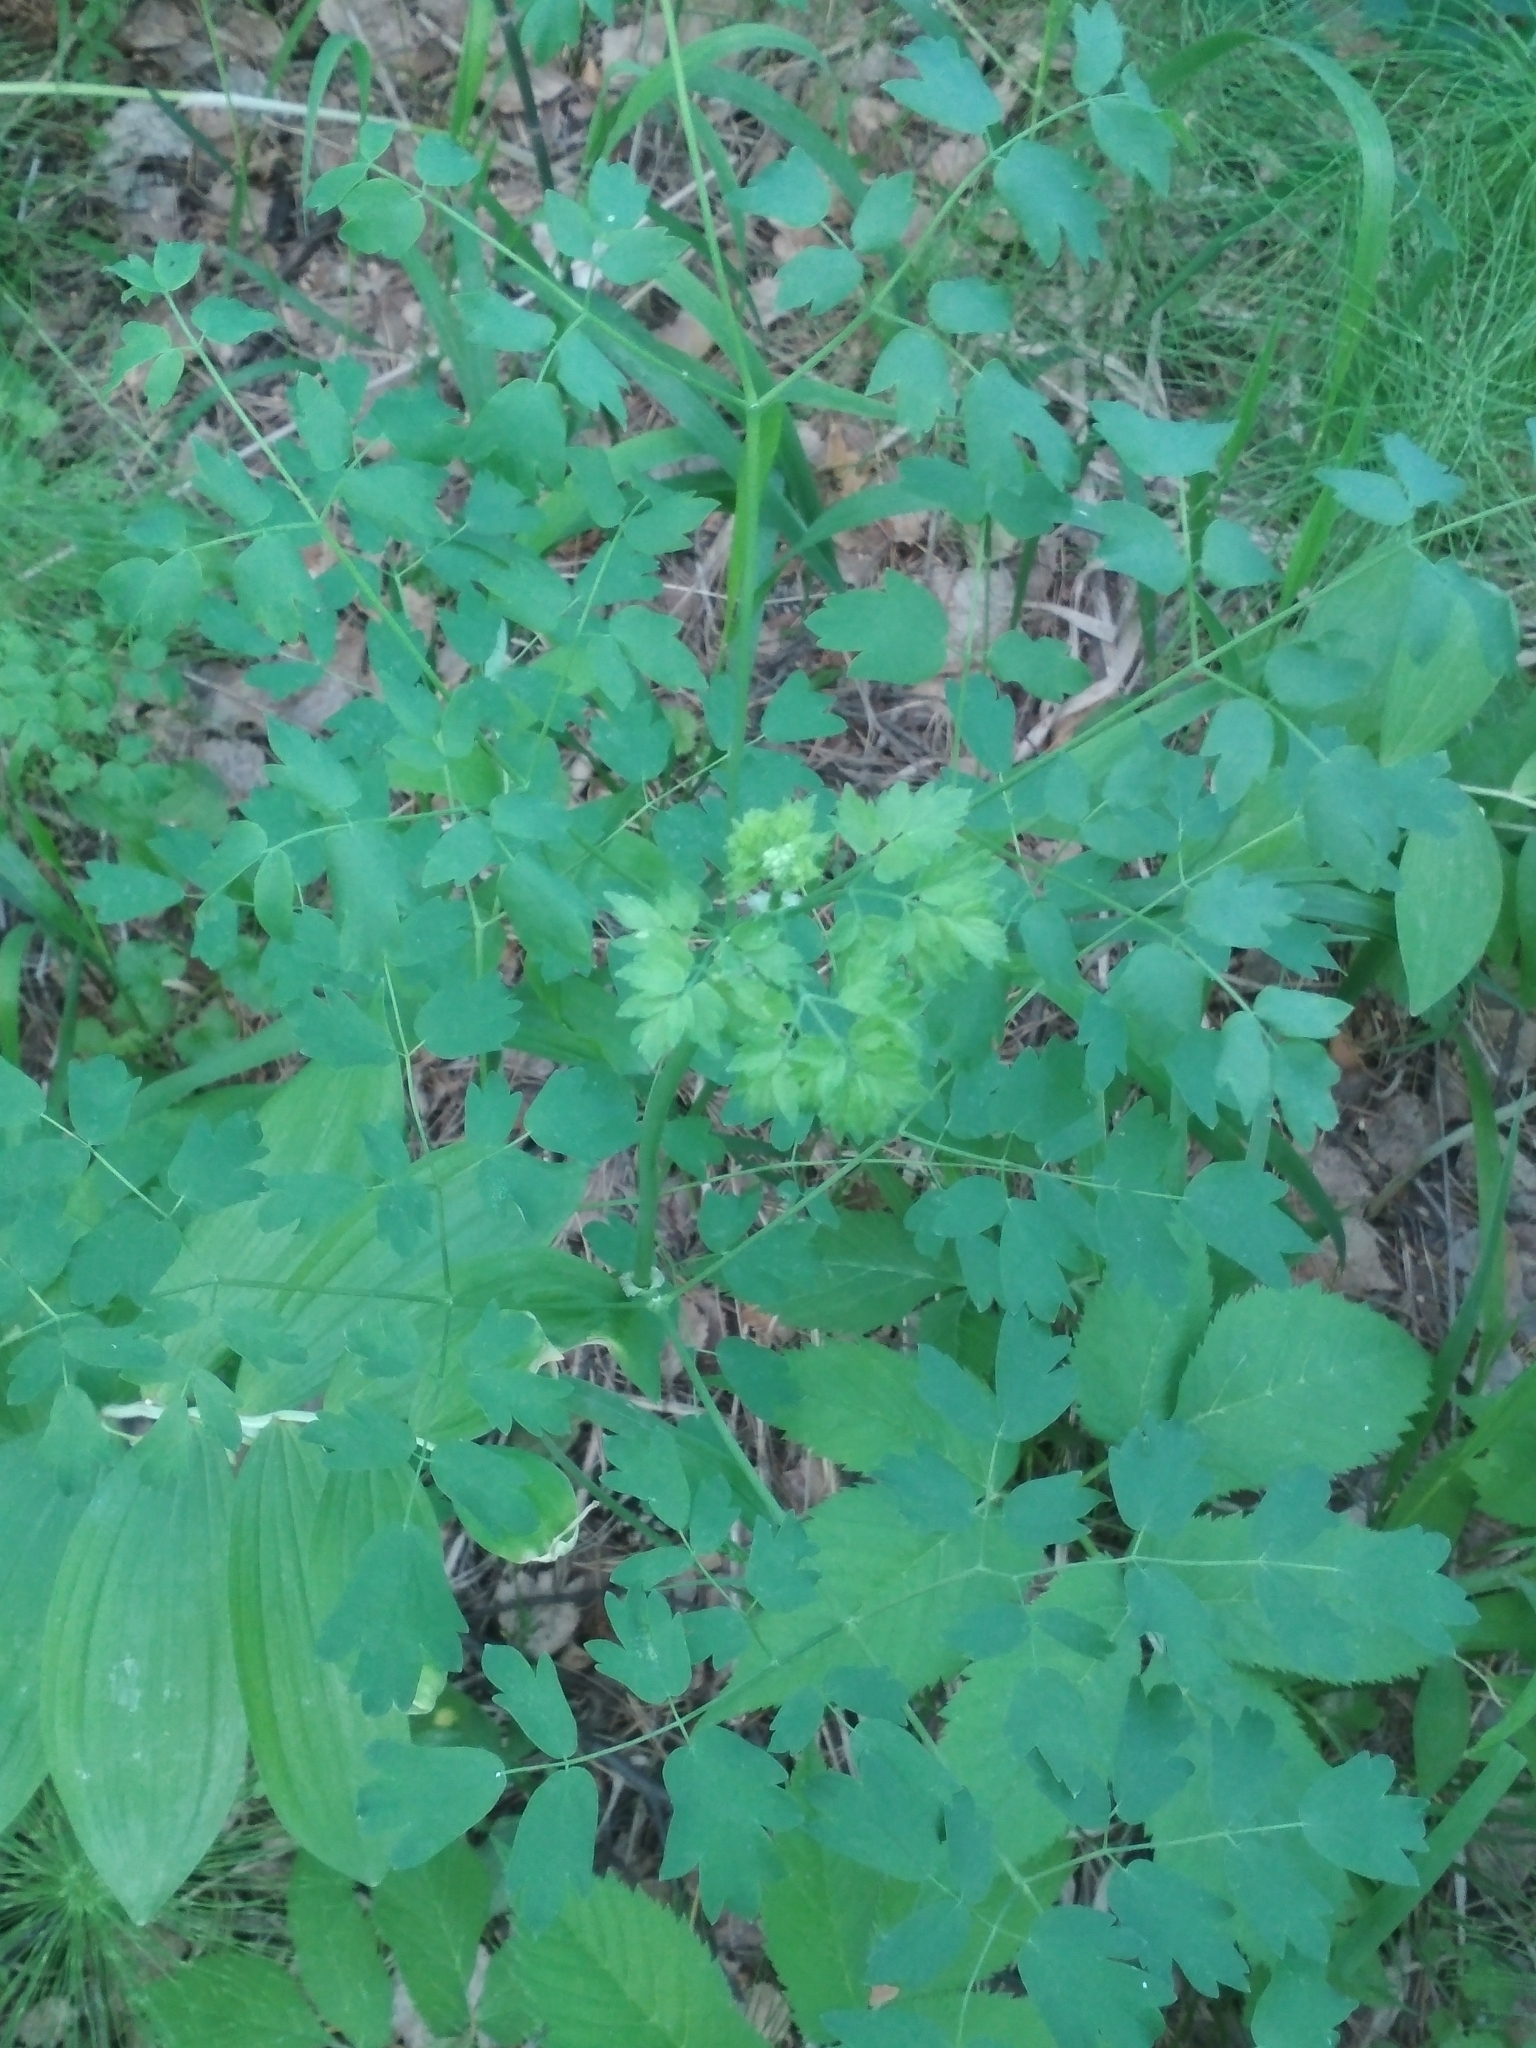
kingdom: Plantae
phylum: Tracheophyta
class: Magnoliopsida
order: Ranunculales
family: Ranunculaceae
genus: Thalictrum
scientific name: Thalictrum minus
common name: Lesser meadow-rue
